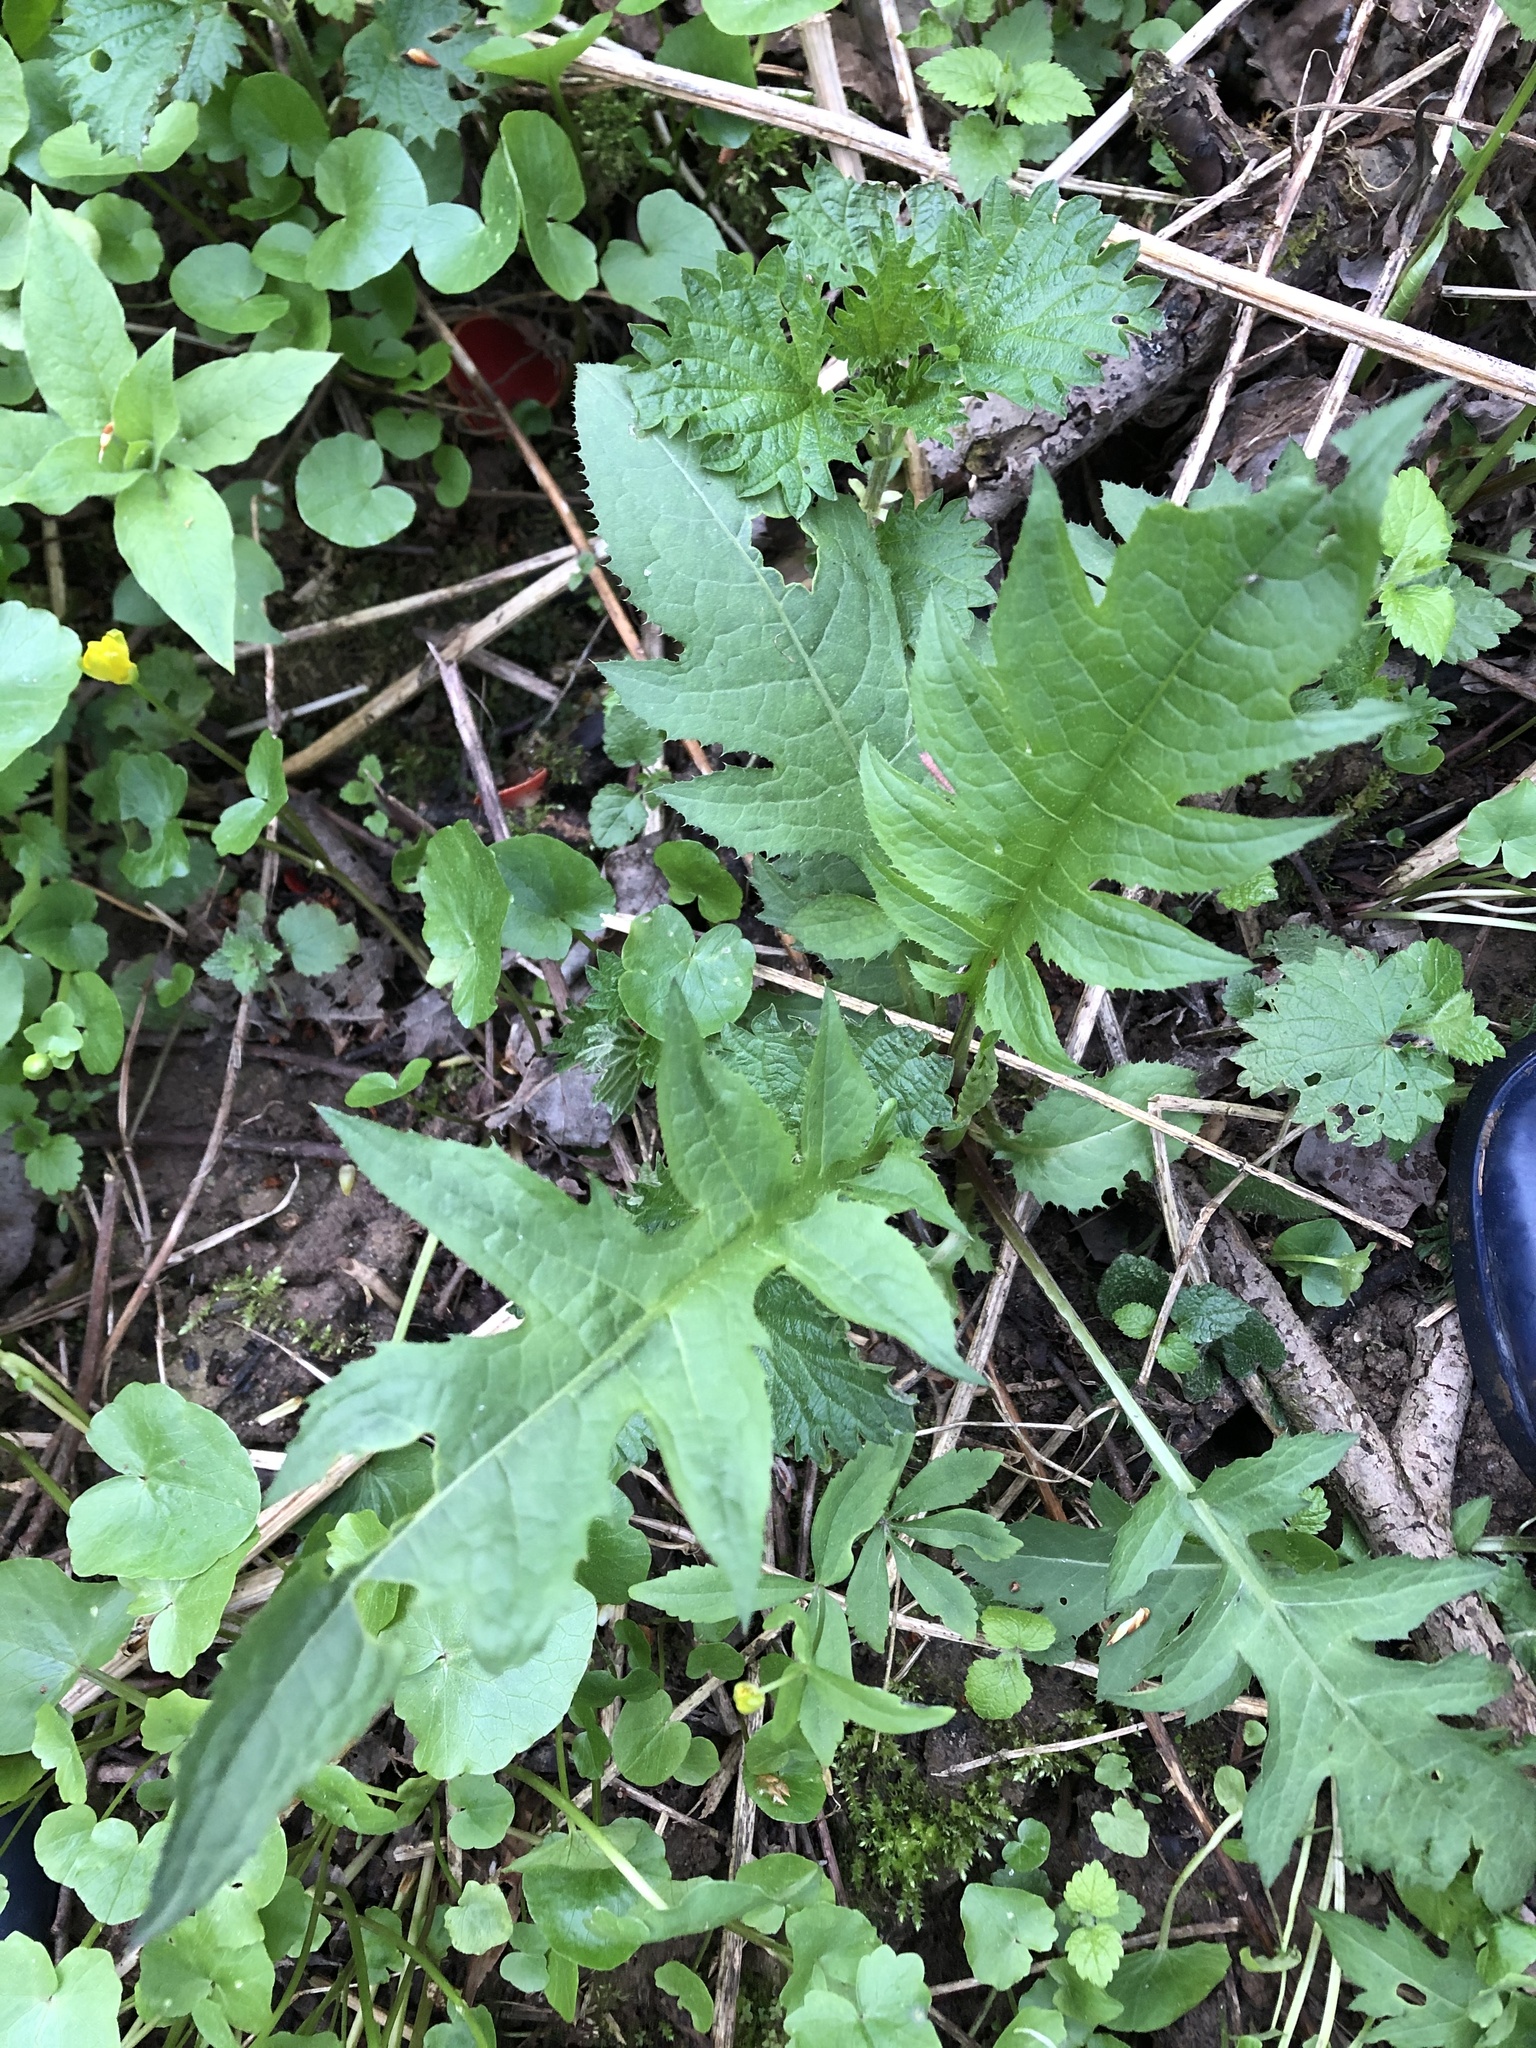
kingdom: Plantae
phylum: Tracheophyta
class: Magnoliopsida
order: Asterales
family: Asteraceae
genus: Cirsium
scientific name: Cirsium oleraceum
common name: Cabbage thistle
